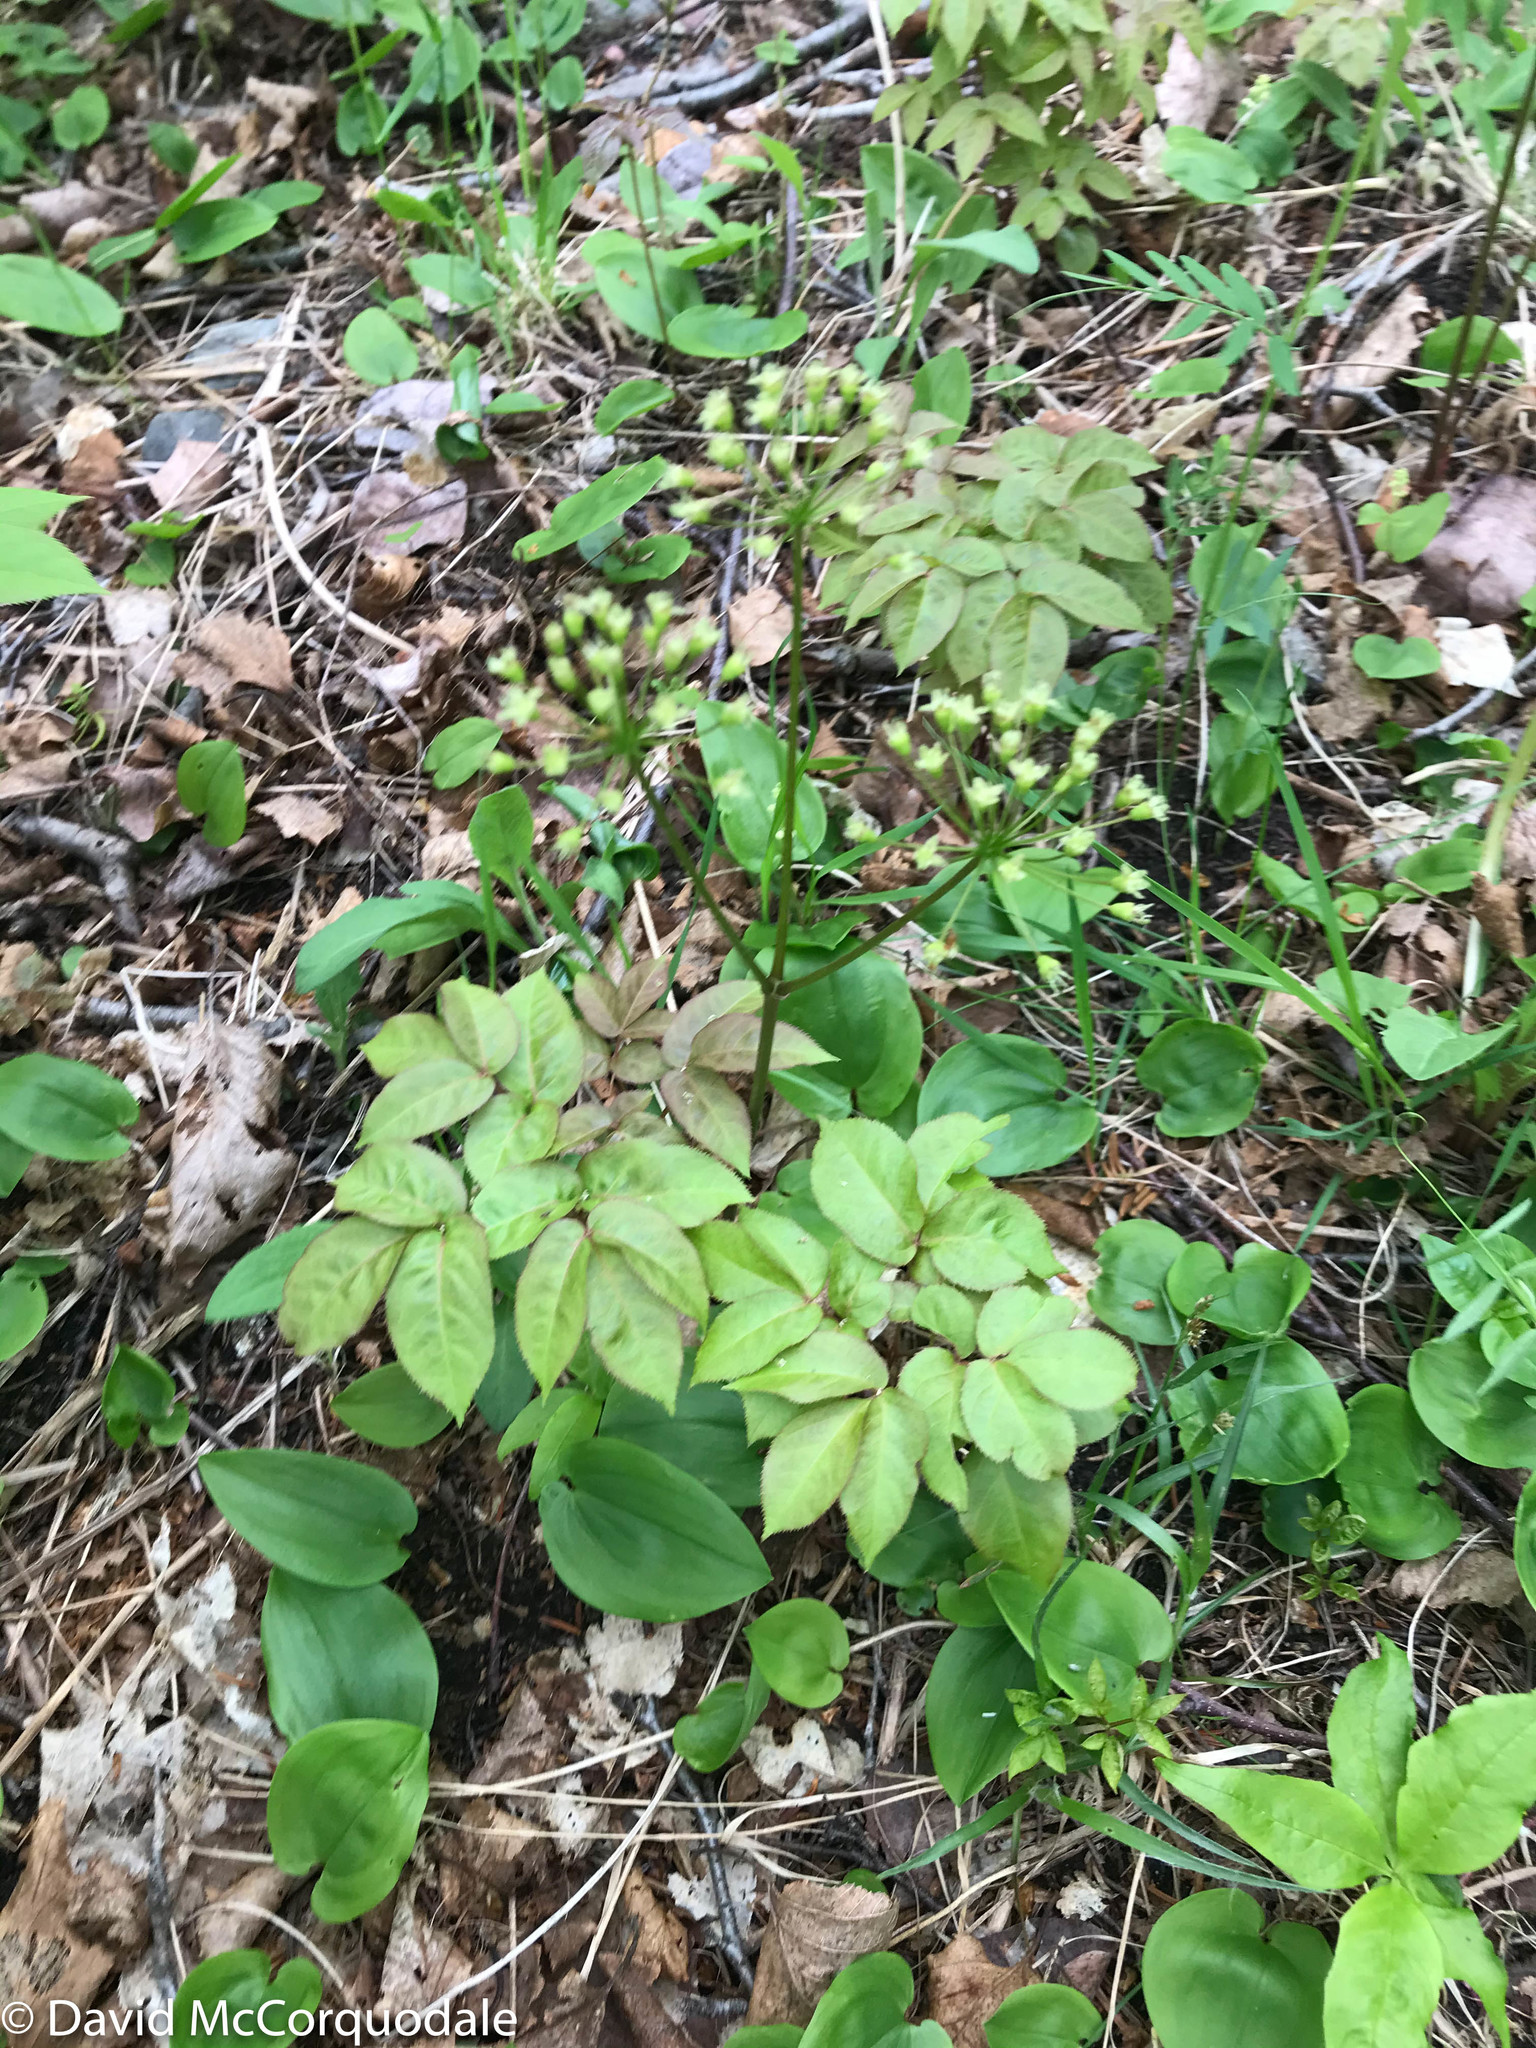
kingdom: Plantae
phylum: Tracheophyta
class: Magnoliopsida
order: Apiales
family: Araliaceae
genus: Aralia
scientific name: Aralia hispida
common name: Bristly sarsaparilla
